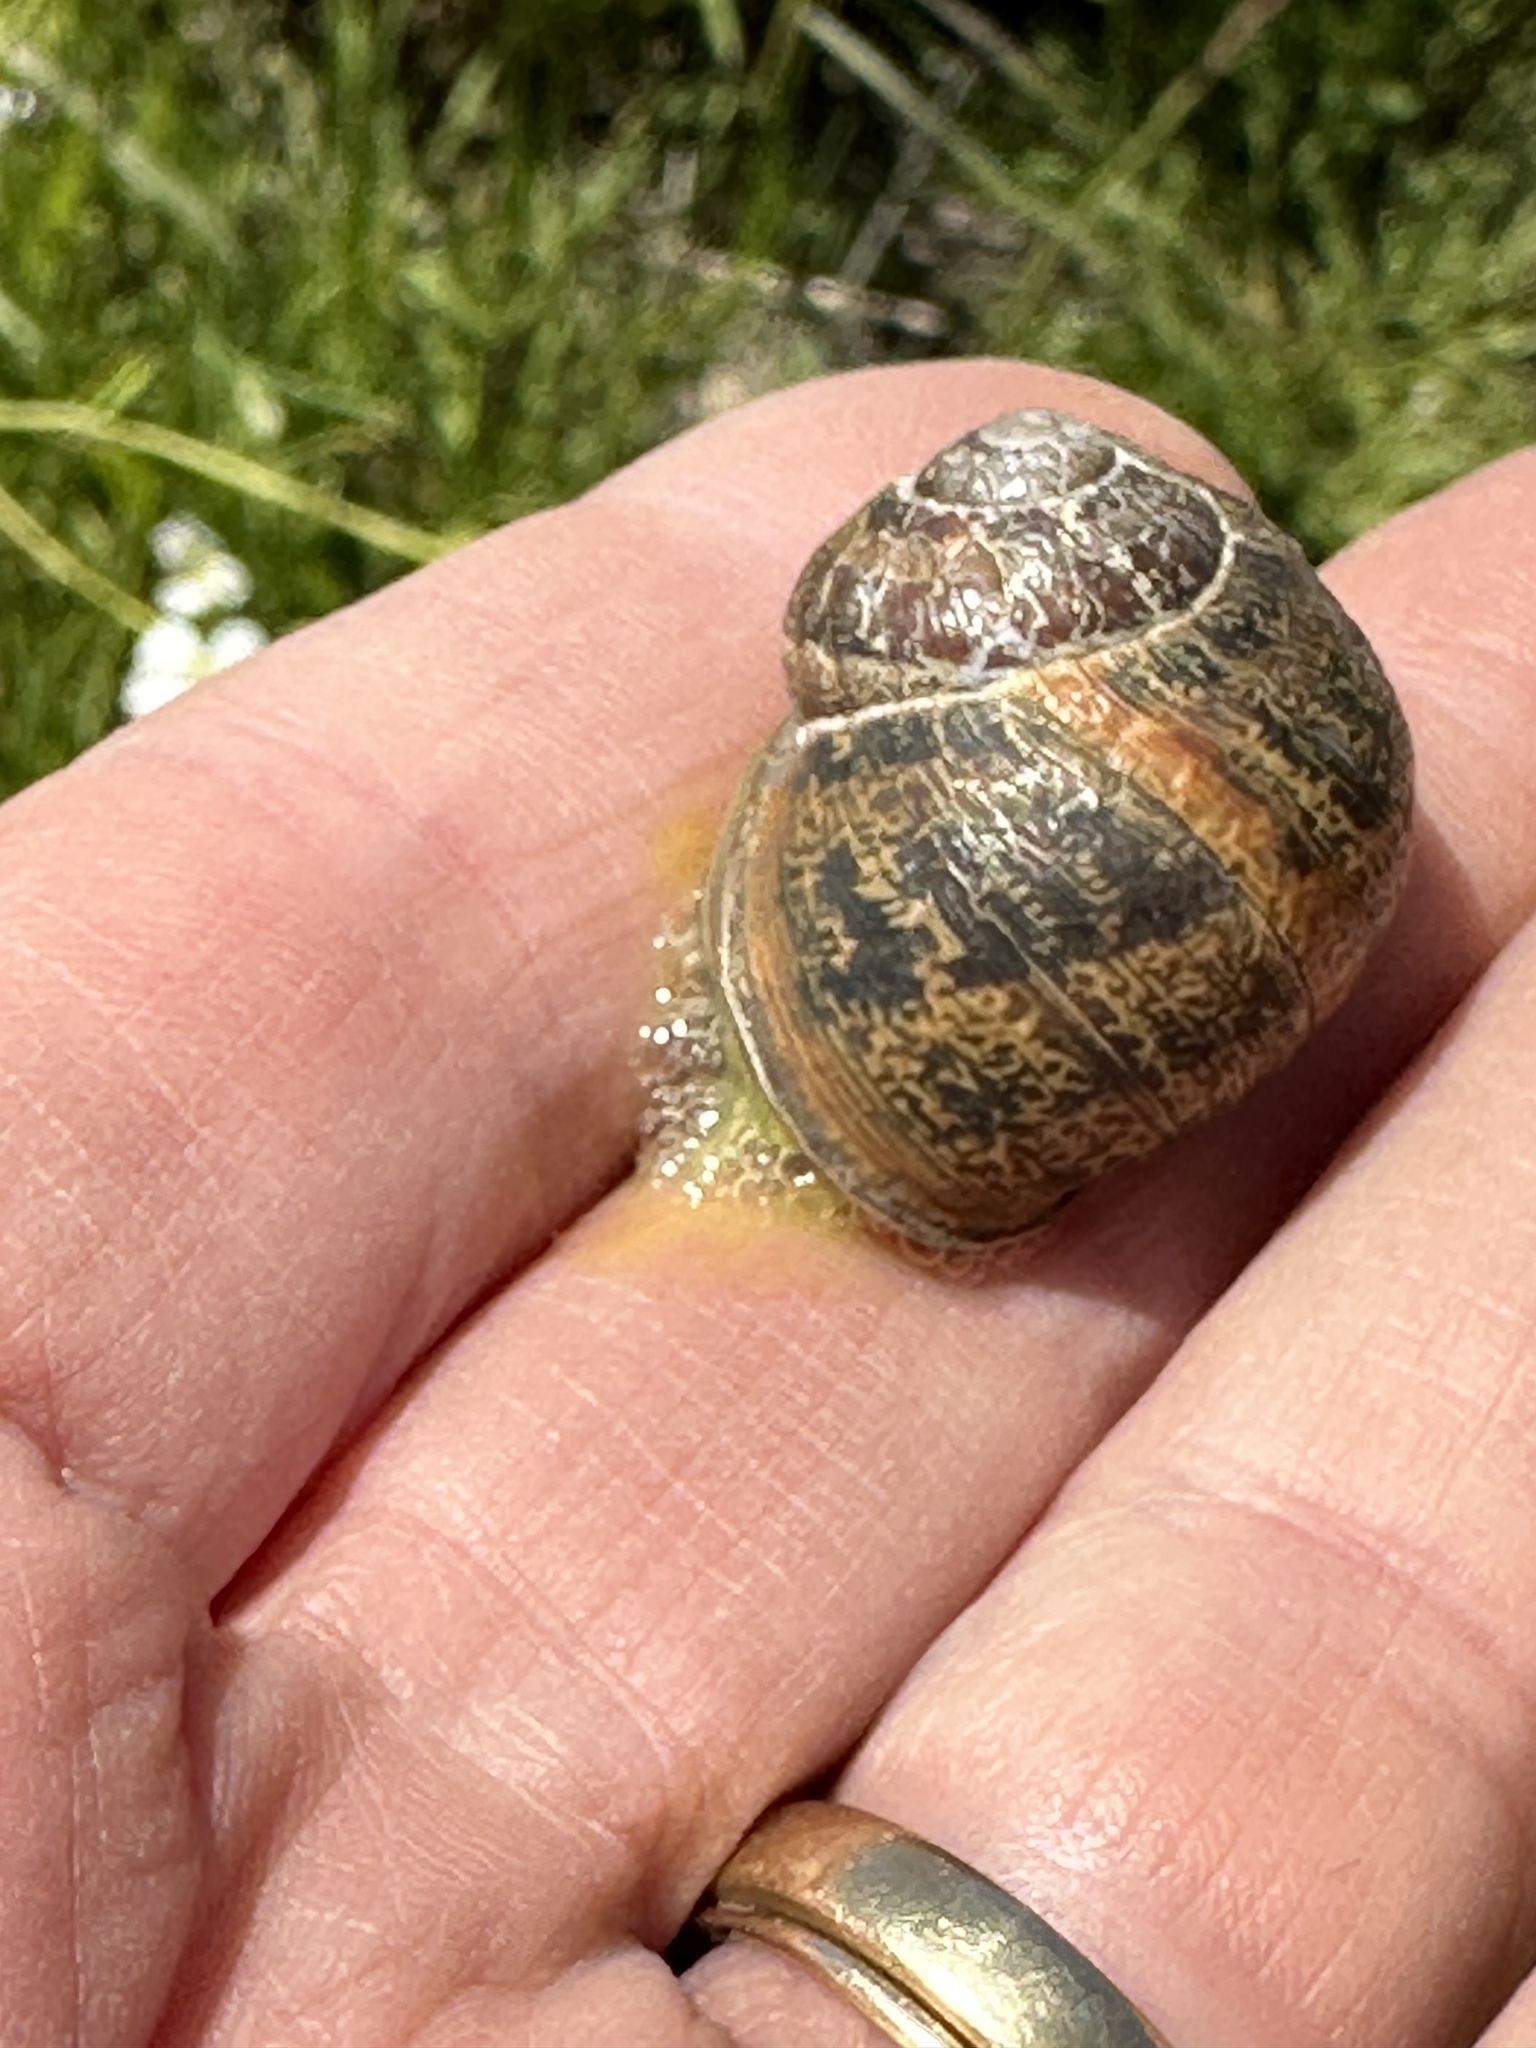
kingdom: Animalia
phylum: Mollusca
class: Gastropoda
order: Stylommatophora
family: Helicidae
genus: Cornu
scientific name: Cornu aspersum
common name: Brown garden snail
